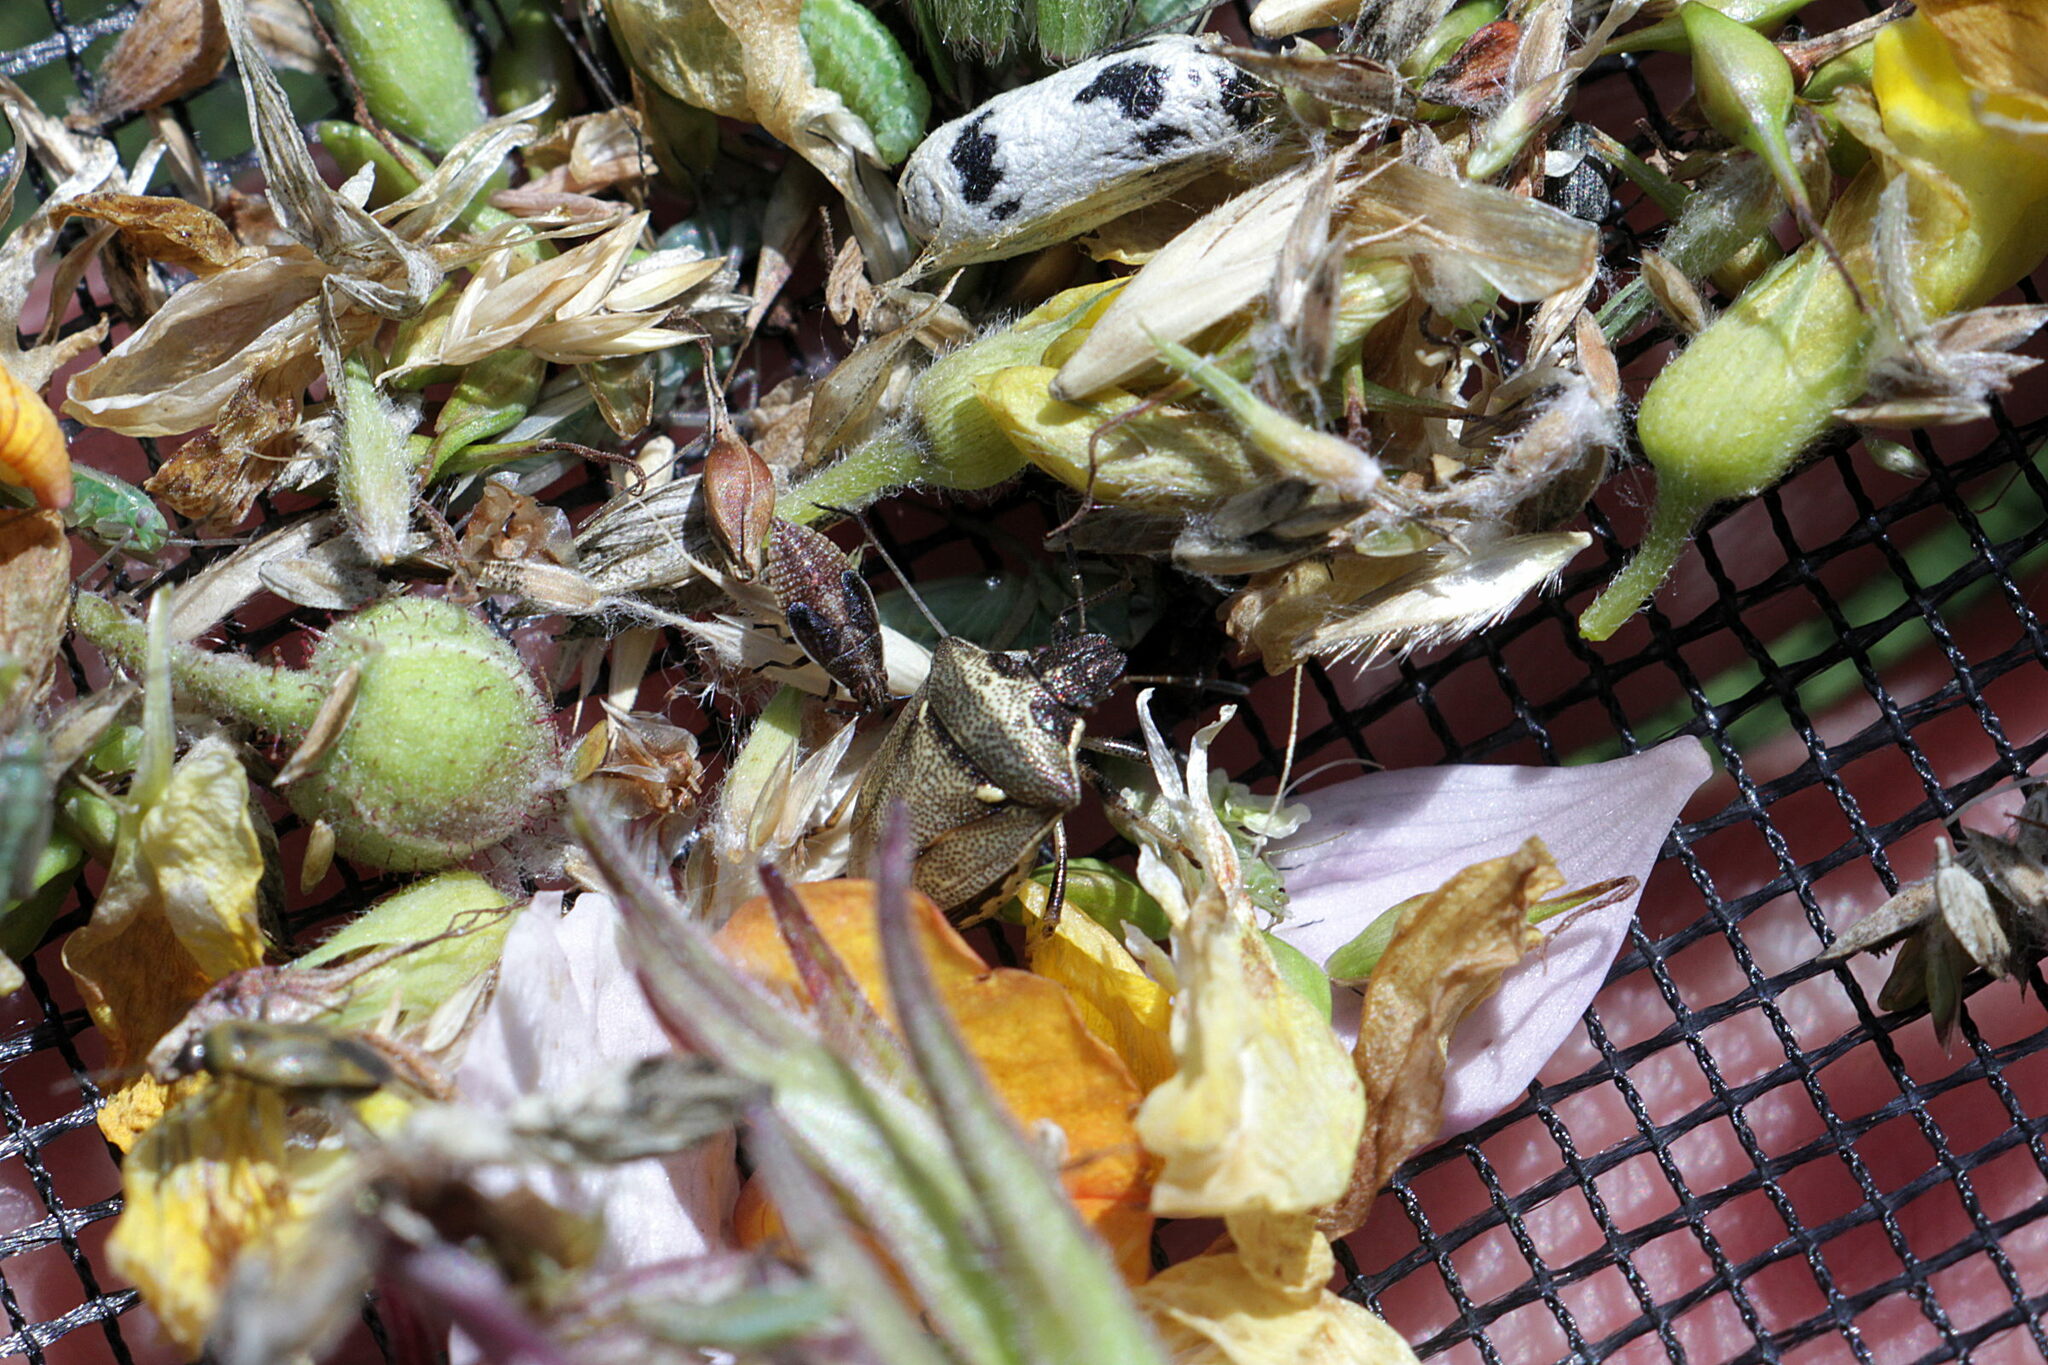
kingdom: Animalia
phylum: Arthropoda
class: Insecta
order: Hemiptera
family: Pentatomidae
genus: Eysarcoris
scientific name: Eysarcoris aeneus
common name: New forest shieldbug
